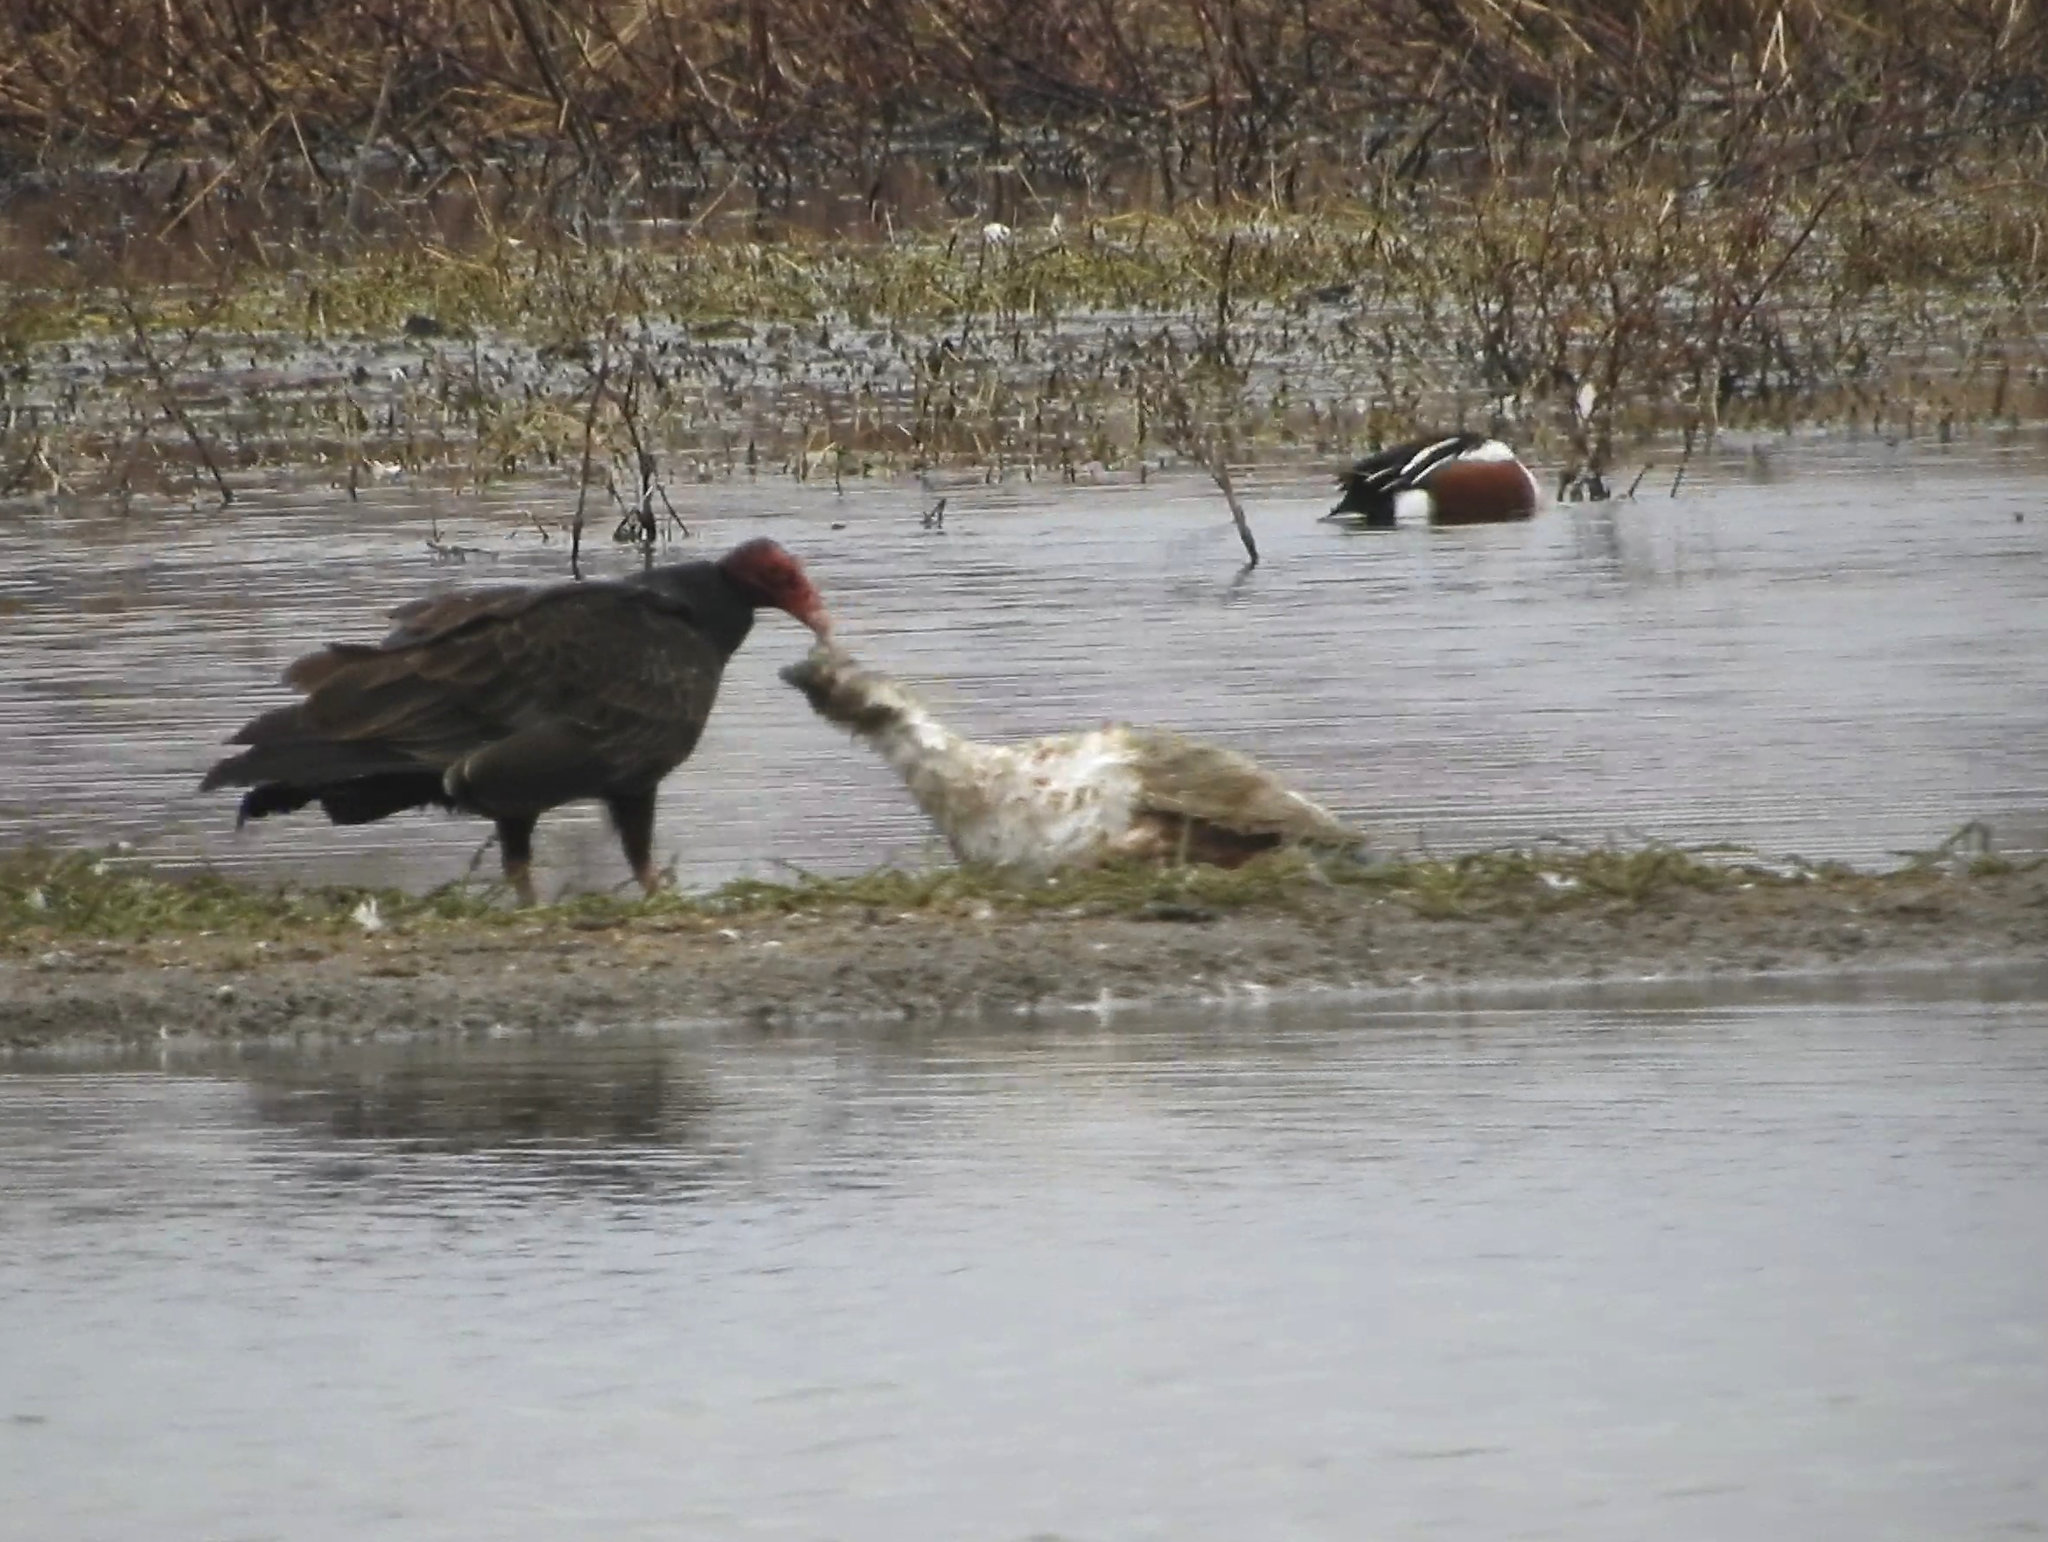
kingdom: Animalia
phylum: Chordata
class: Aves
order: Accipitriformes
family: Cathartidae
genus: Cathartes
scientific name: Cathartes aura
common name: Turkey vulture
